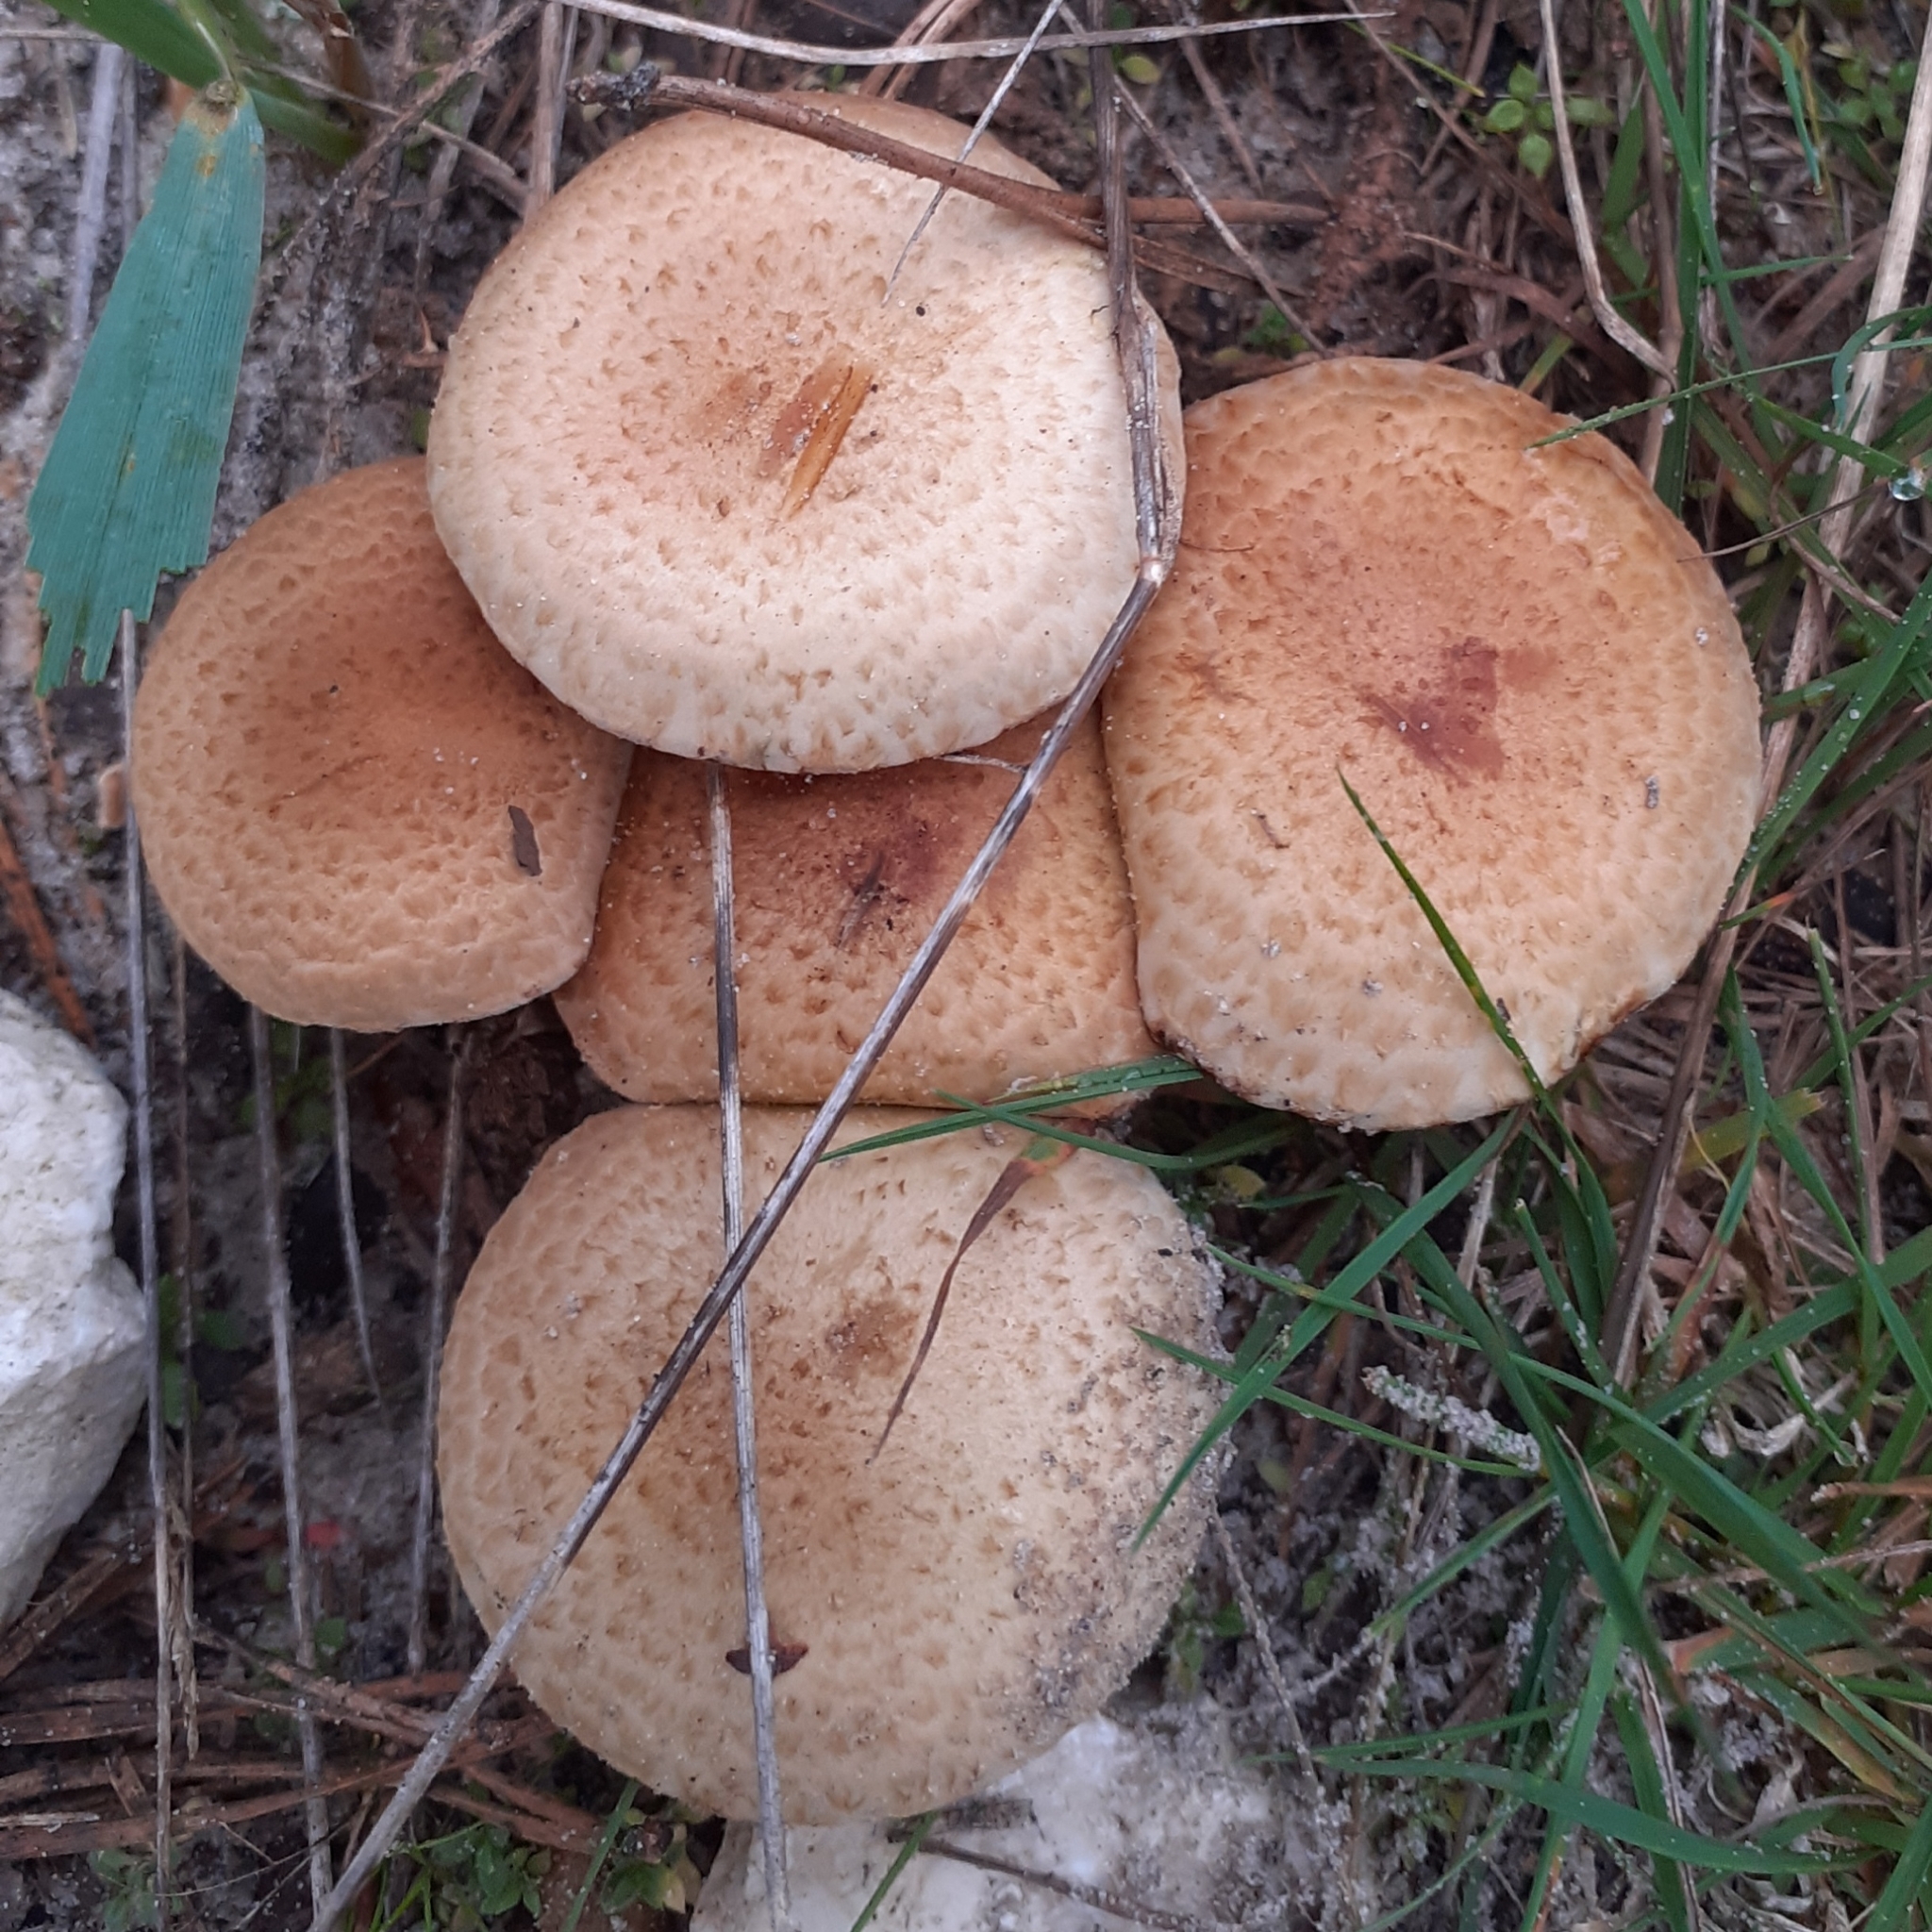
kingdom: Fungi
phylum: Basidiomycota
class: Agaricomycetes
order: Agaricales
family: Strophariaceae
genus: Pholiota
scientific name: Pholiota squarrosa
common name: Shaggy pholiota
